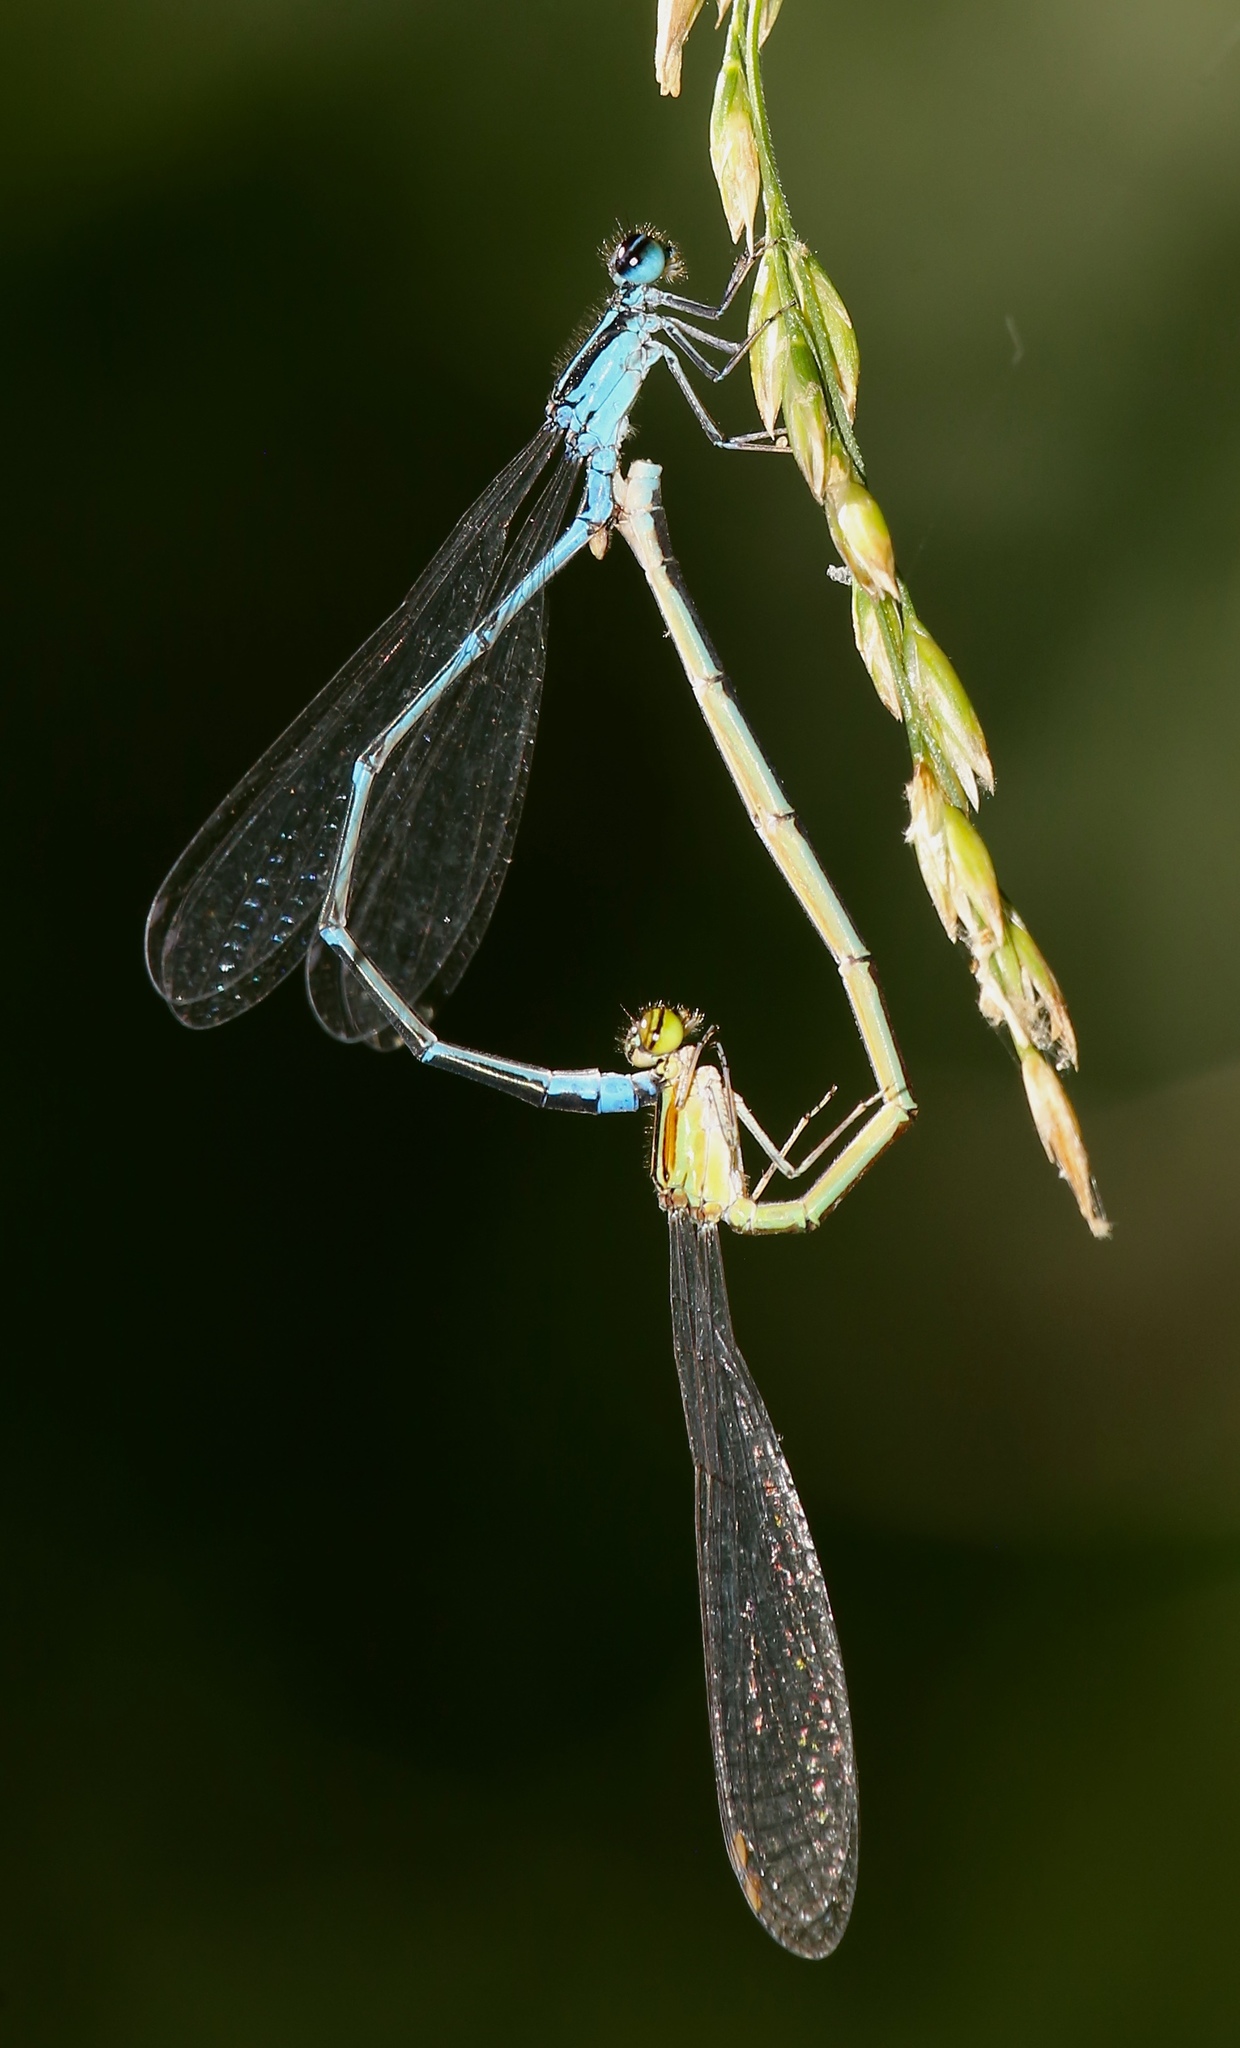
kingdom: Animalia
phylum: Arthropoda
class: Insecta
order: Odonata
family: Coenagrionidae
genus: Enallagma
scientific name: Enallagma exsulans
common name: Stream bluet
